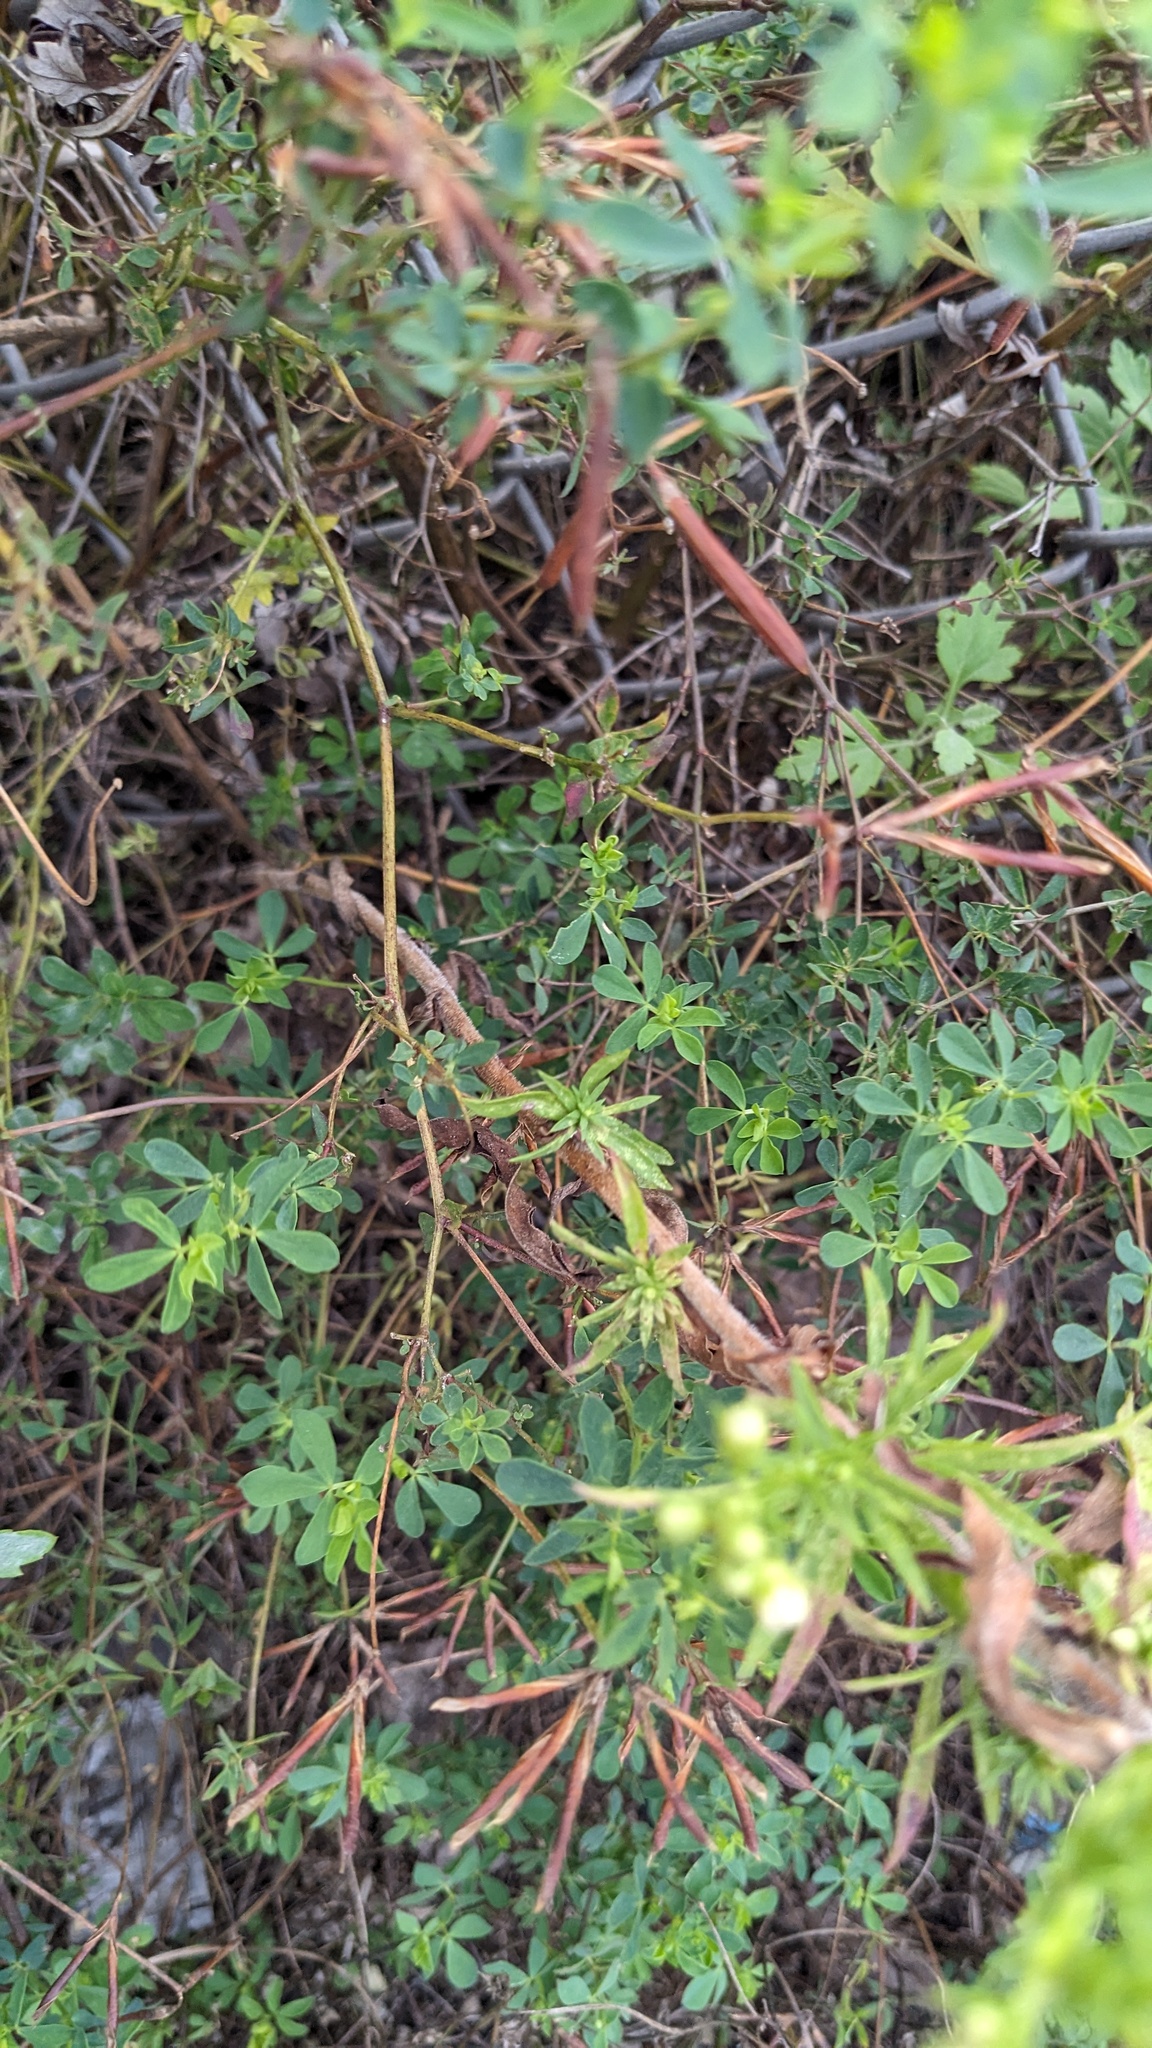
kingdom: Plantae
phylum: Tracheophyta
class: Magnoliopsida
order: Fabales
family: Fabaceae
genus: Lotus
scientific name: Lotus corniculatus
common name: Common bird's-foot-trefoil
